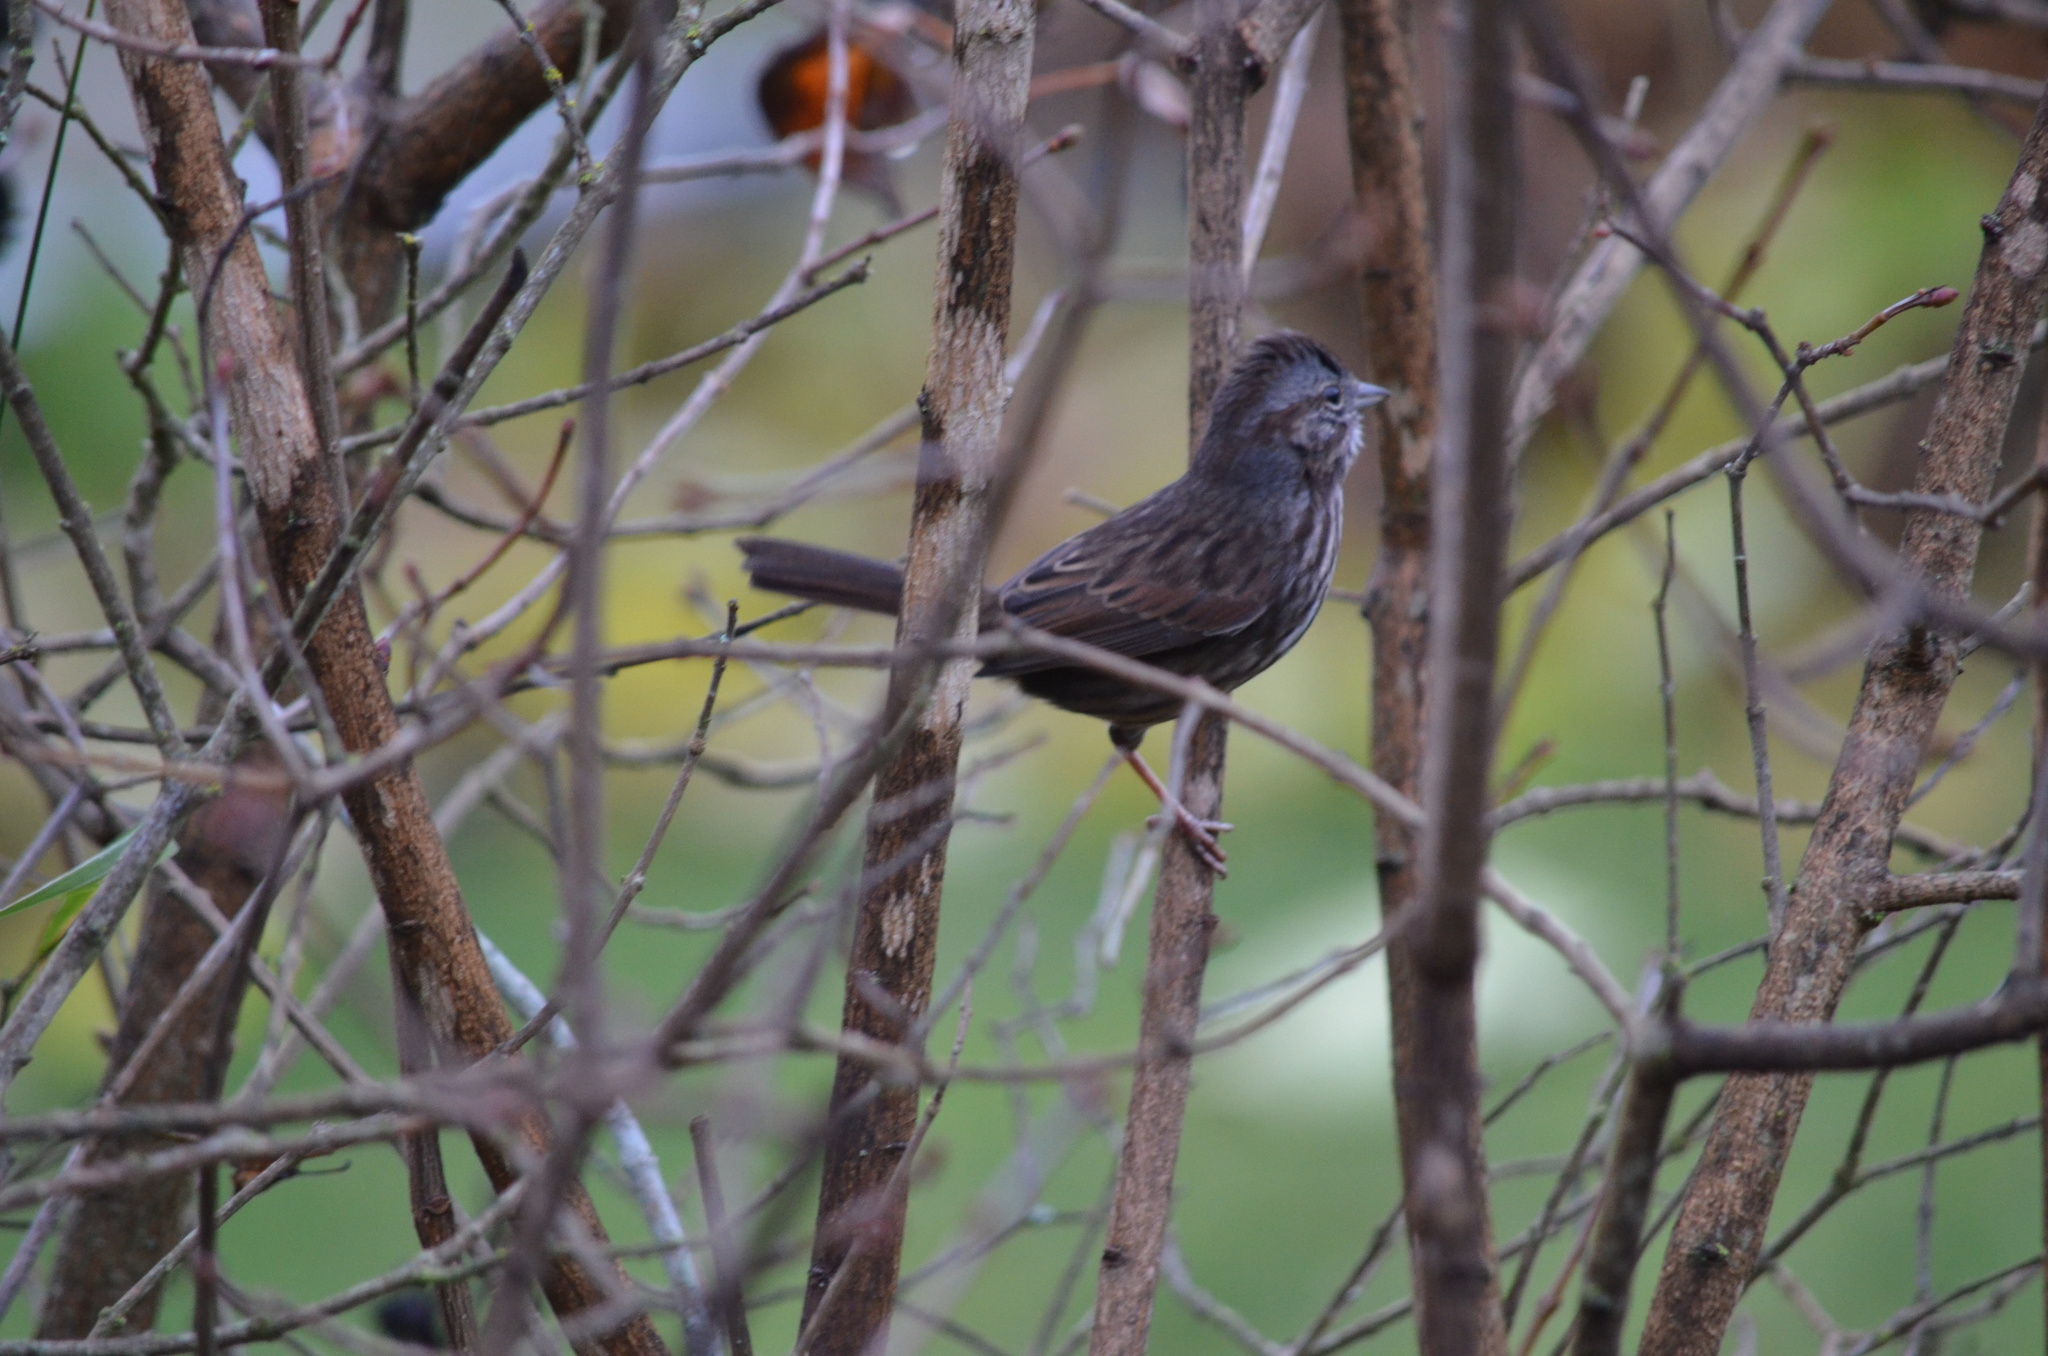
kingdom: Animalia
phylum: Chordata
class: Aves
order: Passeriformes
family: Passerellidae
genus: Melospiza
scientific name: Melospiza melodia
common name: Song sparrow
